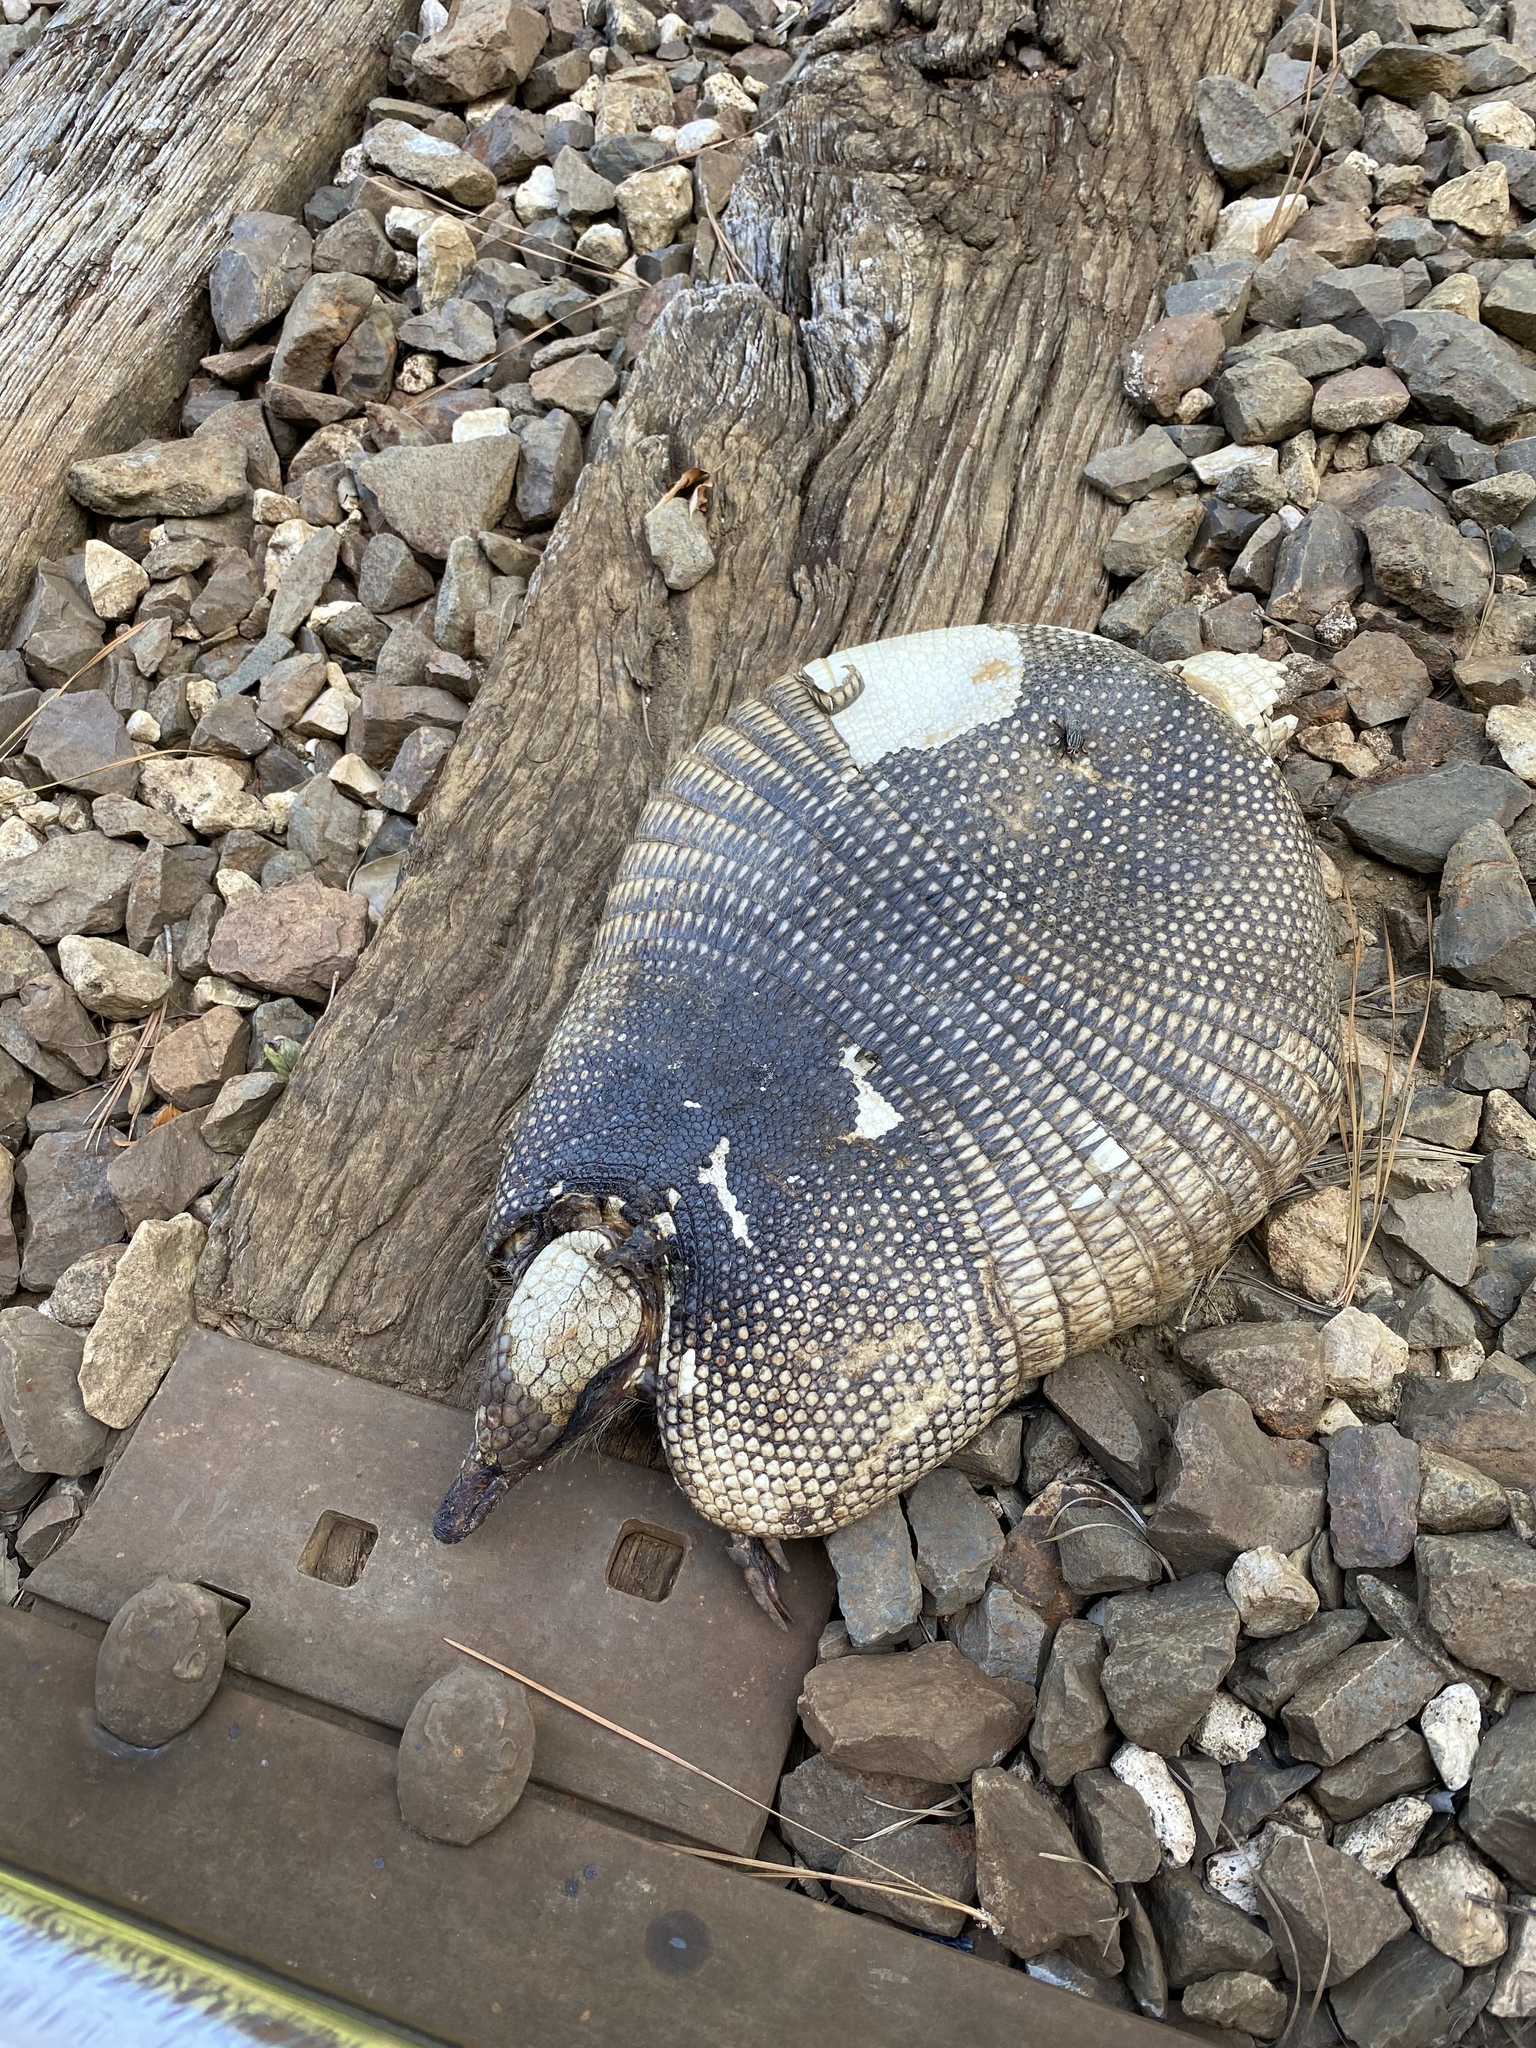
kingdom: Animalia
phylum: Chordata
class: Mammalia
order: Cingulata
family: Dasypodidae
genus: Dasypus
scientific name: Dasypus novemcinctus
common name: Nine-banded armadillo
